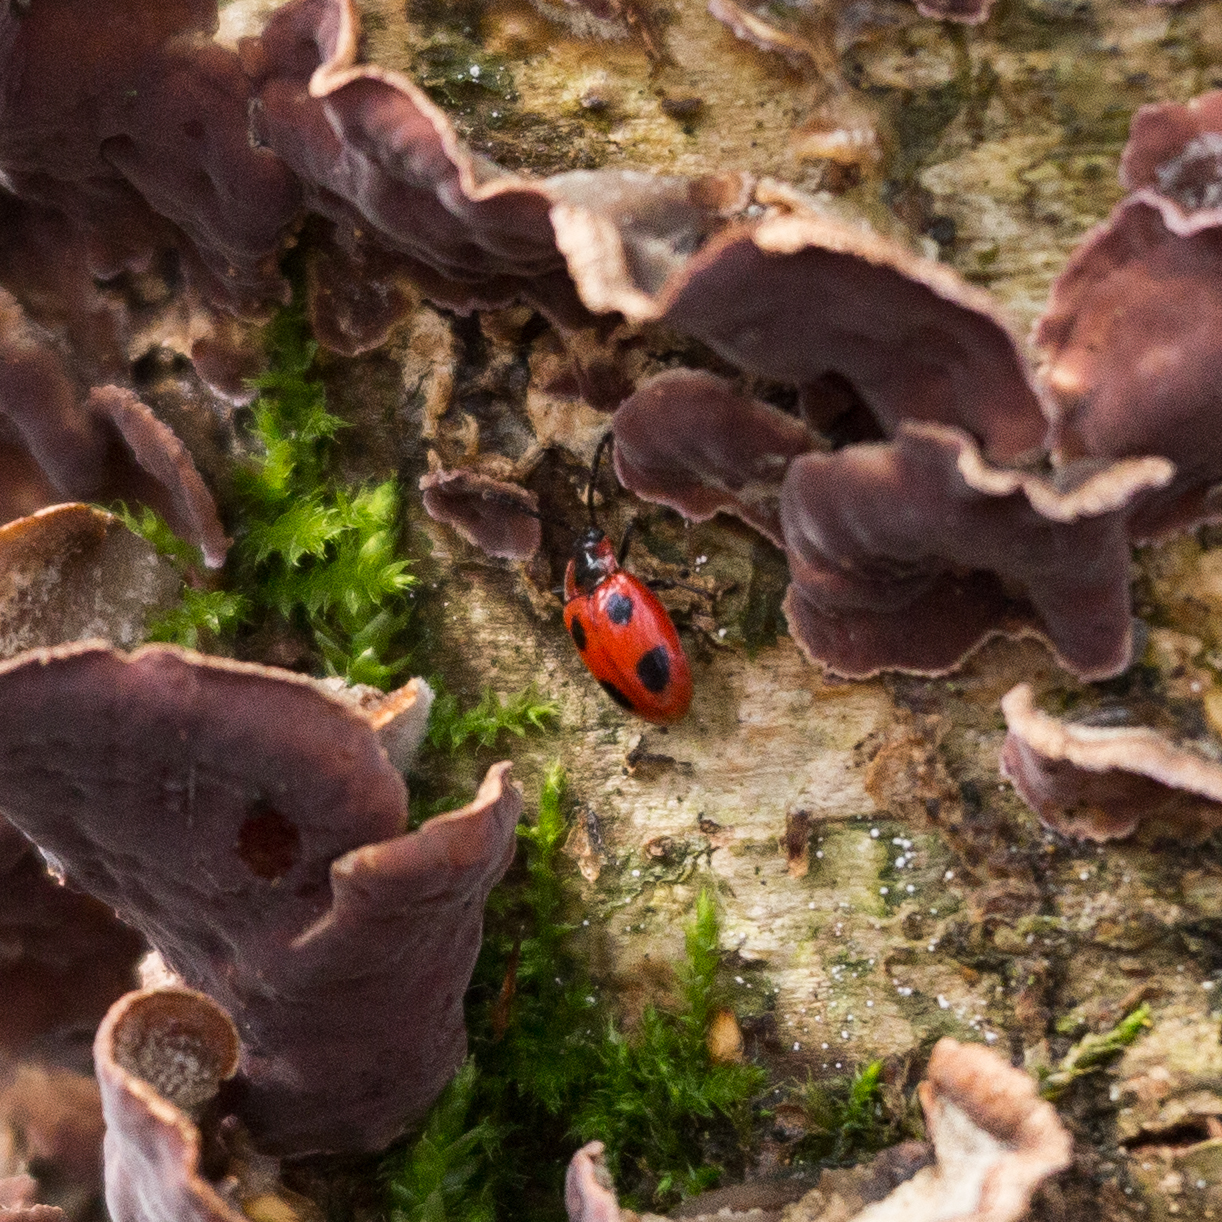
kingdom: Animalia
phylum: Arthropoda
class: Insecta
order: Coleoptera
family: Endomychidae
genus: Endomychus
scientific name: Endomychus coccineus
